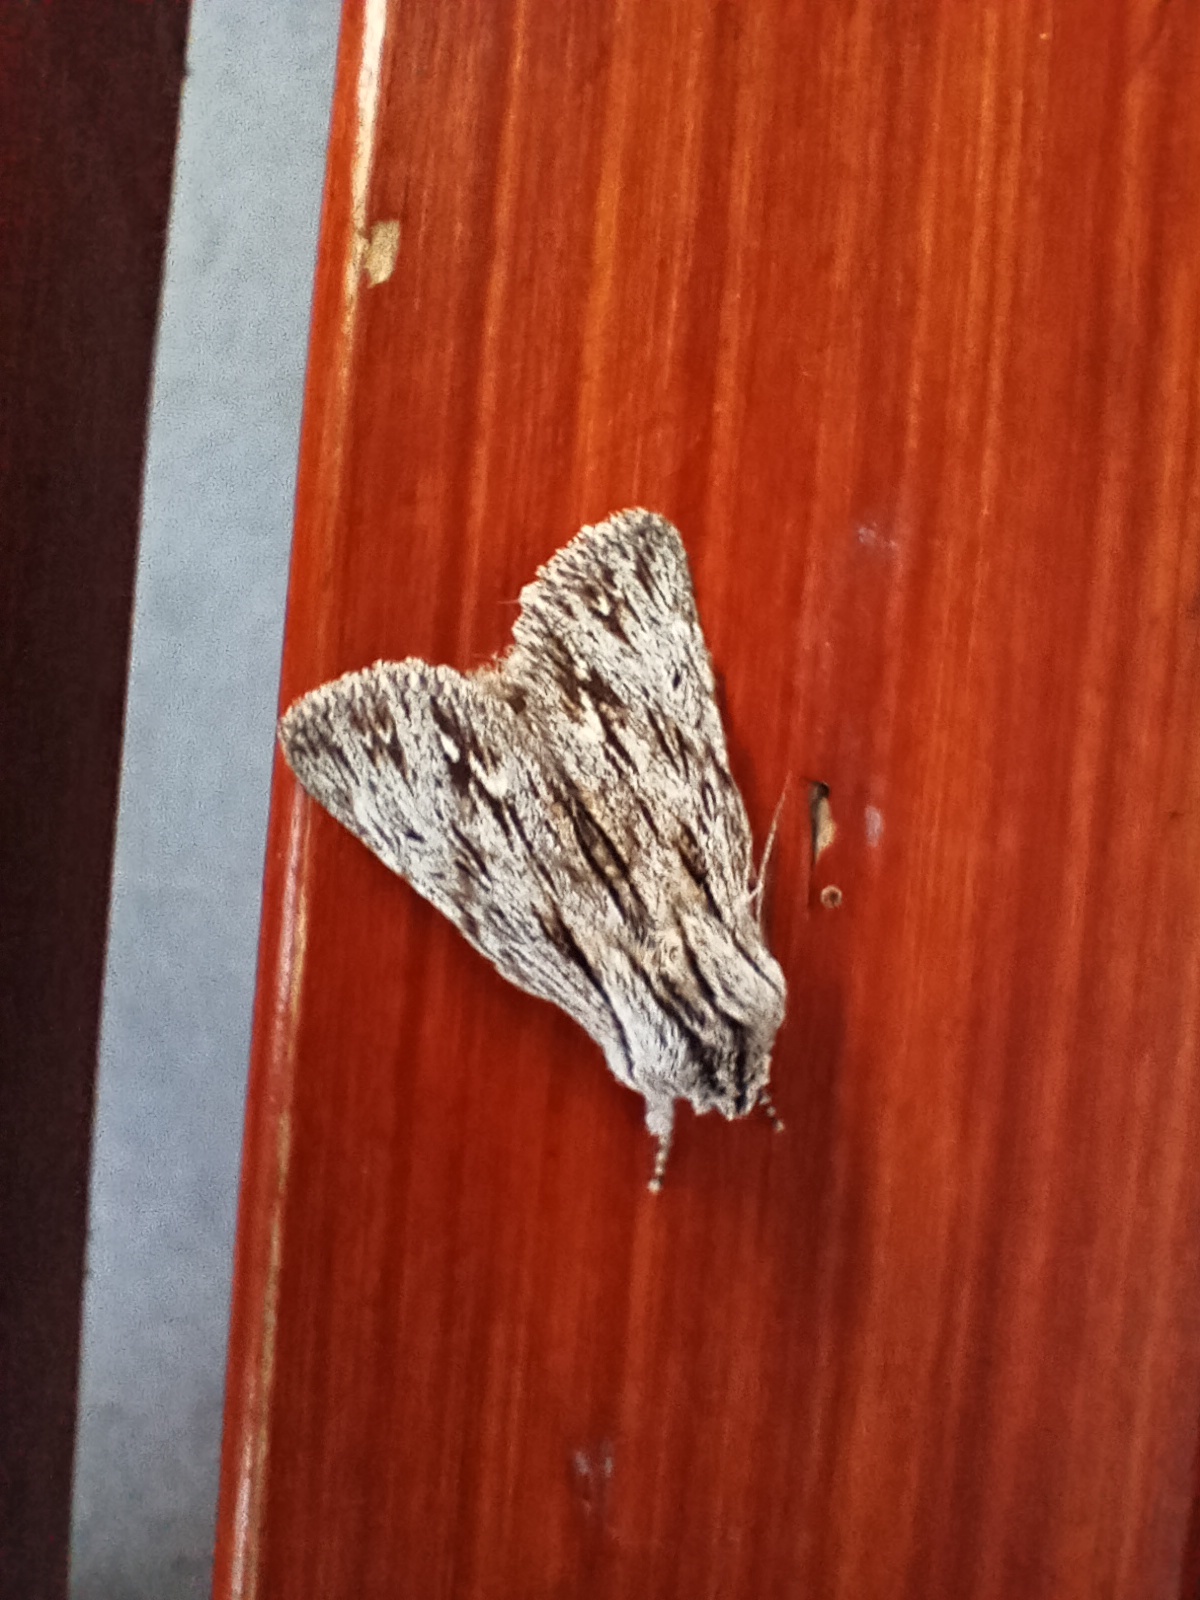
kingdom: Animalia
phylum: Arthropoda
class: Insecta
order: Lepidoptera
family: Noctuidae
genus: Asteroscopus
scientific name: Asteroscopus sphinx
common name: The sprawler
